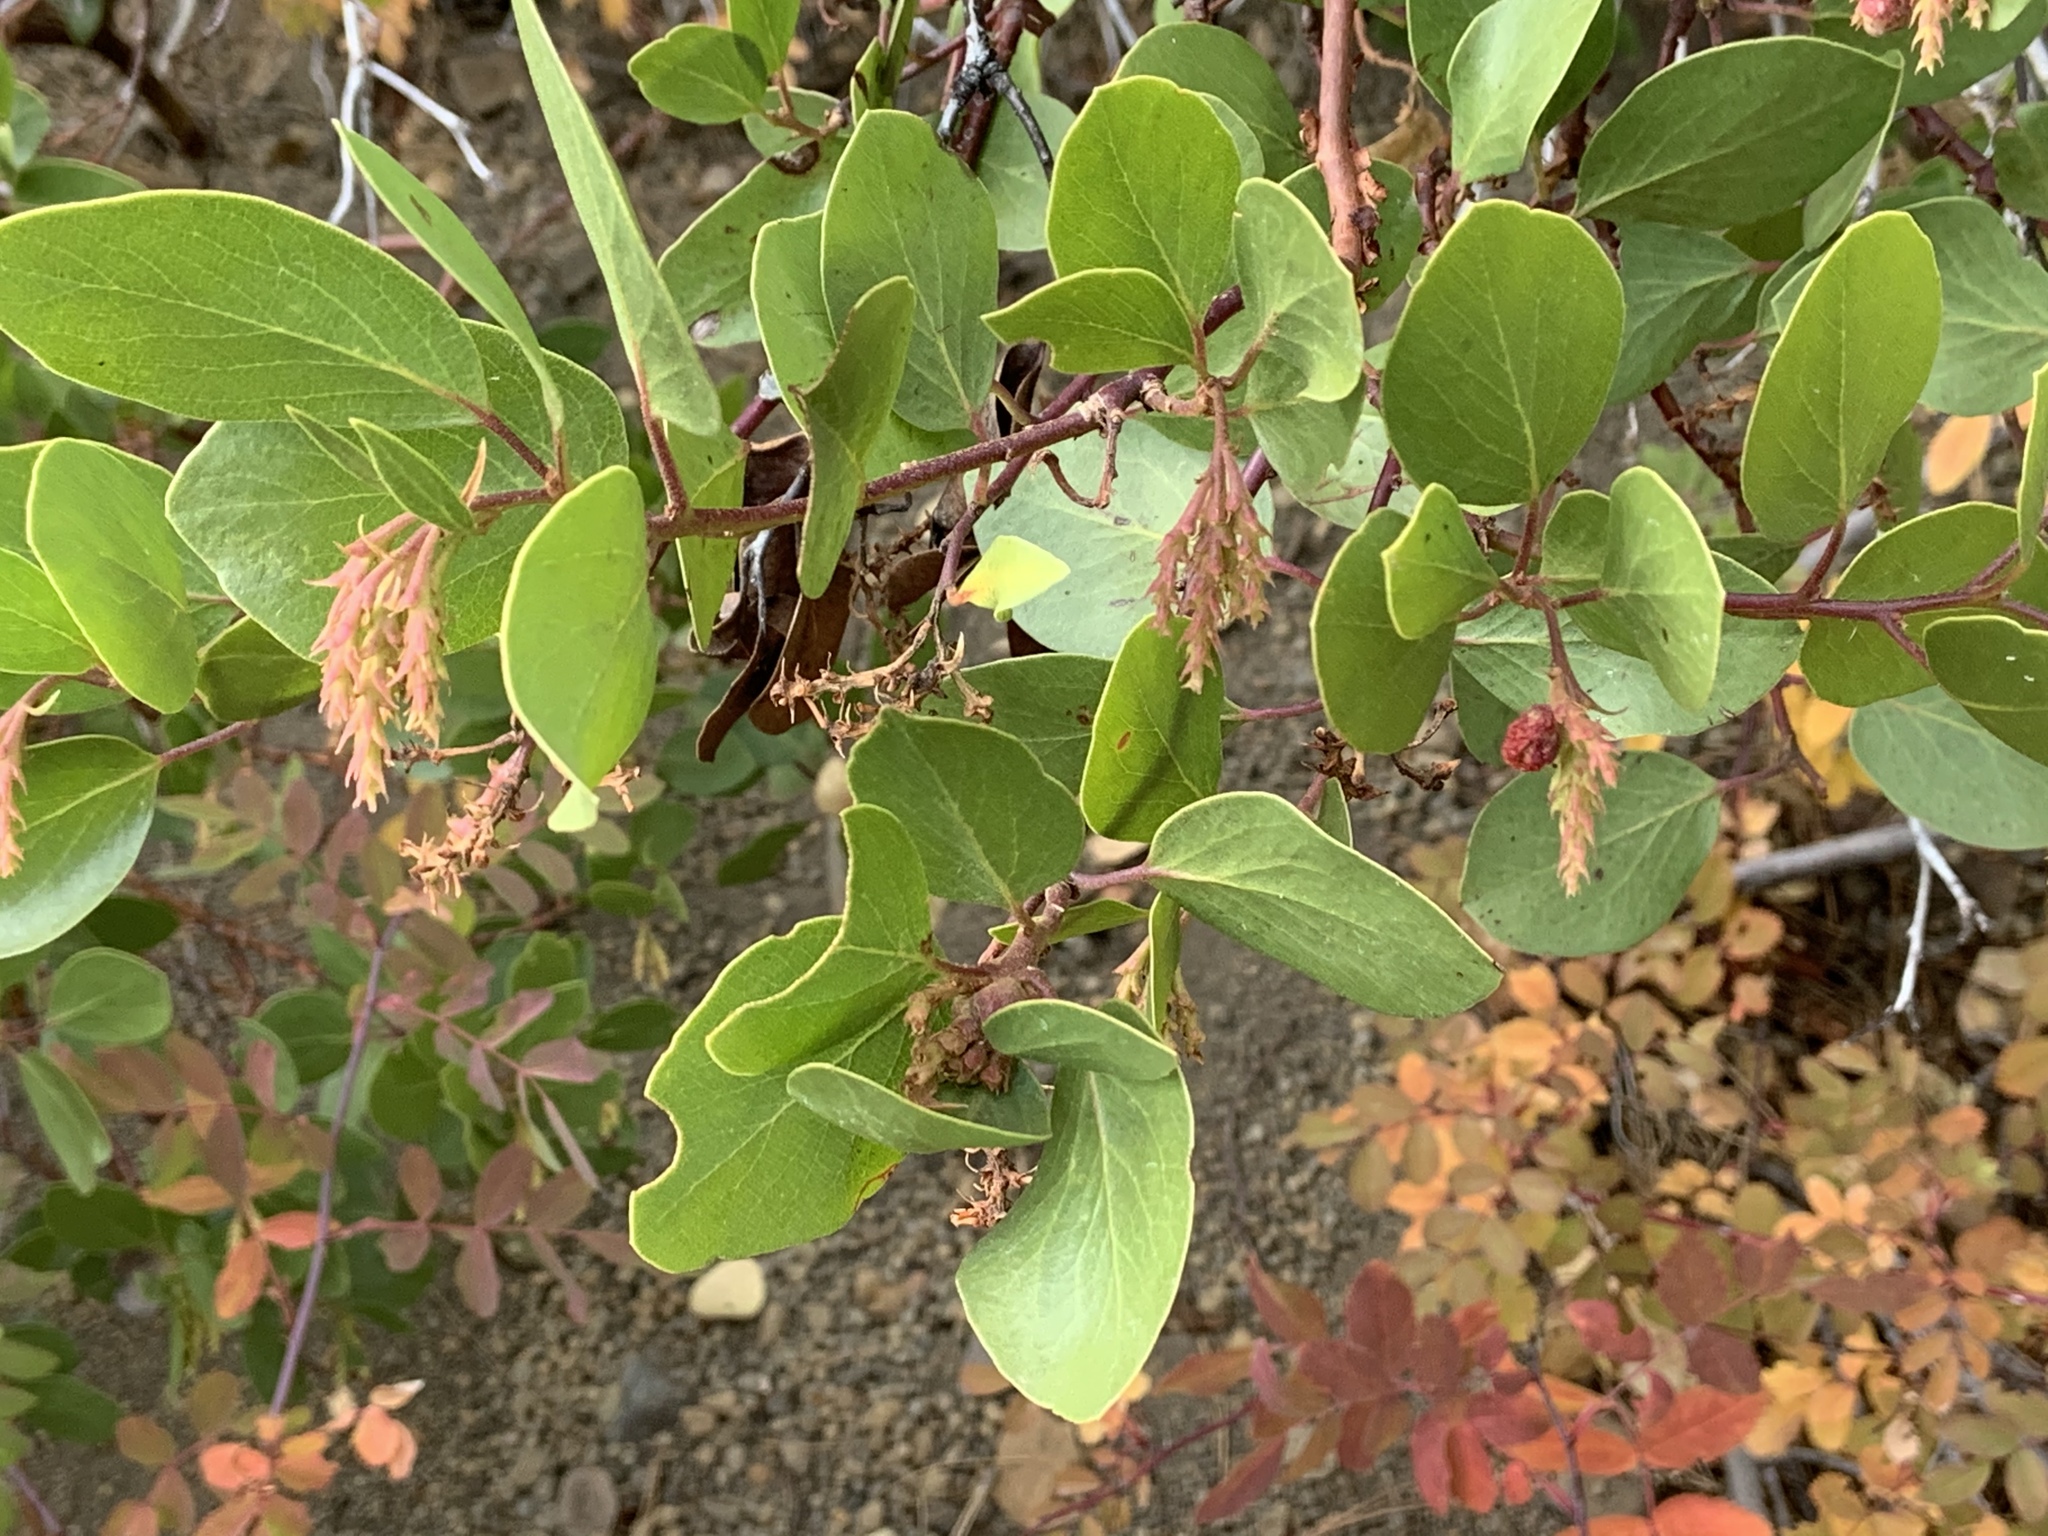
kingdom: Plantae
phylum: Tracheophyta
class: Magnoliopsida
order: Ericales
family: Ericaceae
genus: Arctostaphylos
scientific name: Arctostaphylos patula
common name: Green-leaf manzanita
